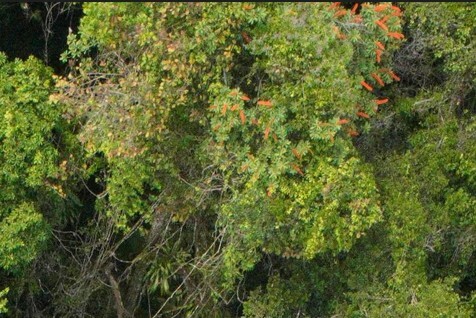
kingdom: Plantae
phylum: Tracheophyta
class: Magnoliopsida
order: Ericales
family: Marcgraviaceae
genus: Norantea
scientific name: Norantea guianensis
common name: Red hot poker vine
